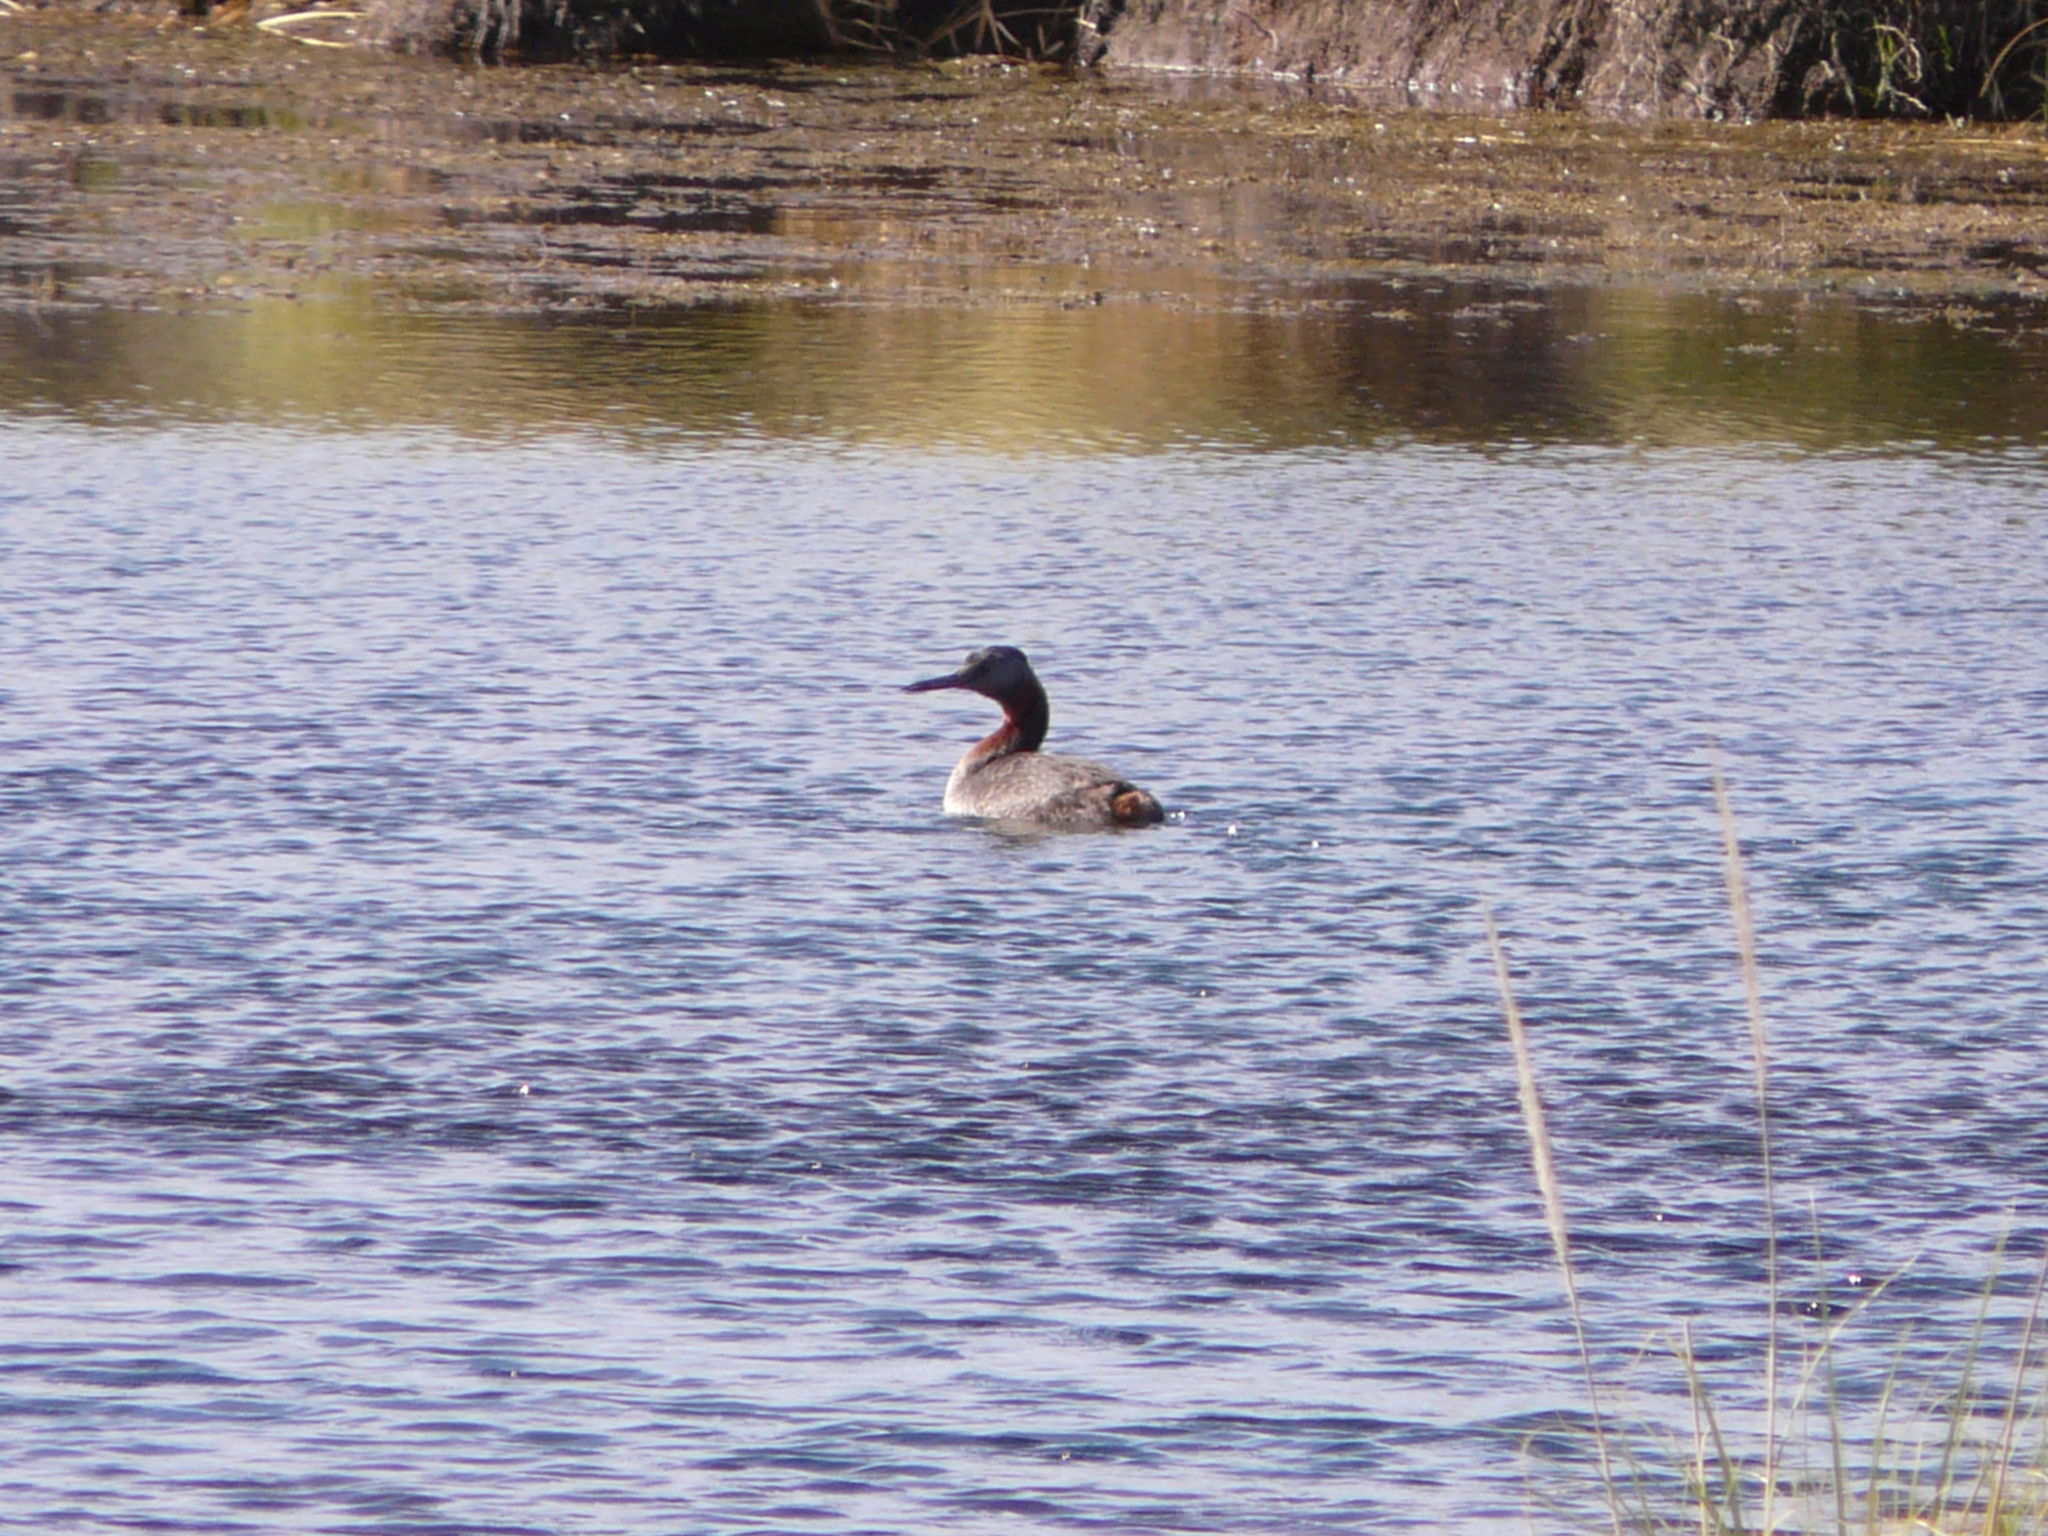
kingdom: Animalia
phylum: Chordata
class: Aves
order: Podicipediformes
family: Podicipedidae
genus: Podiceps
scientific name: Podiceps major
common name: Great grebe
